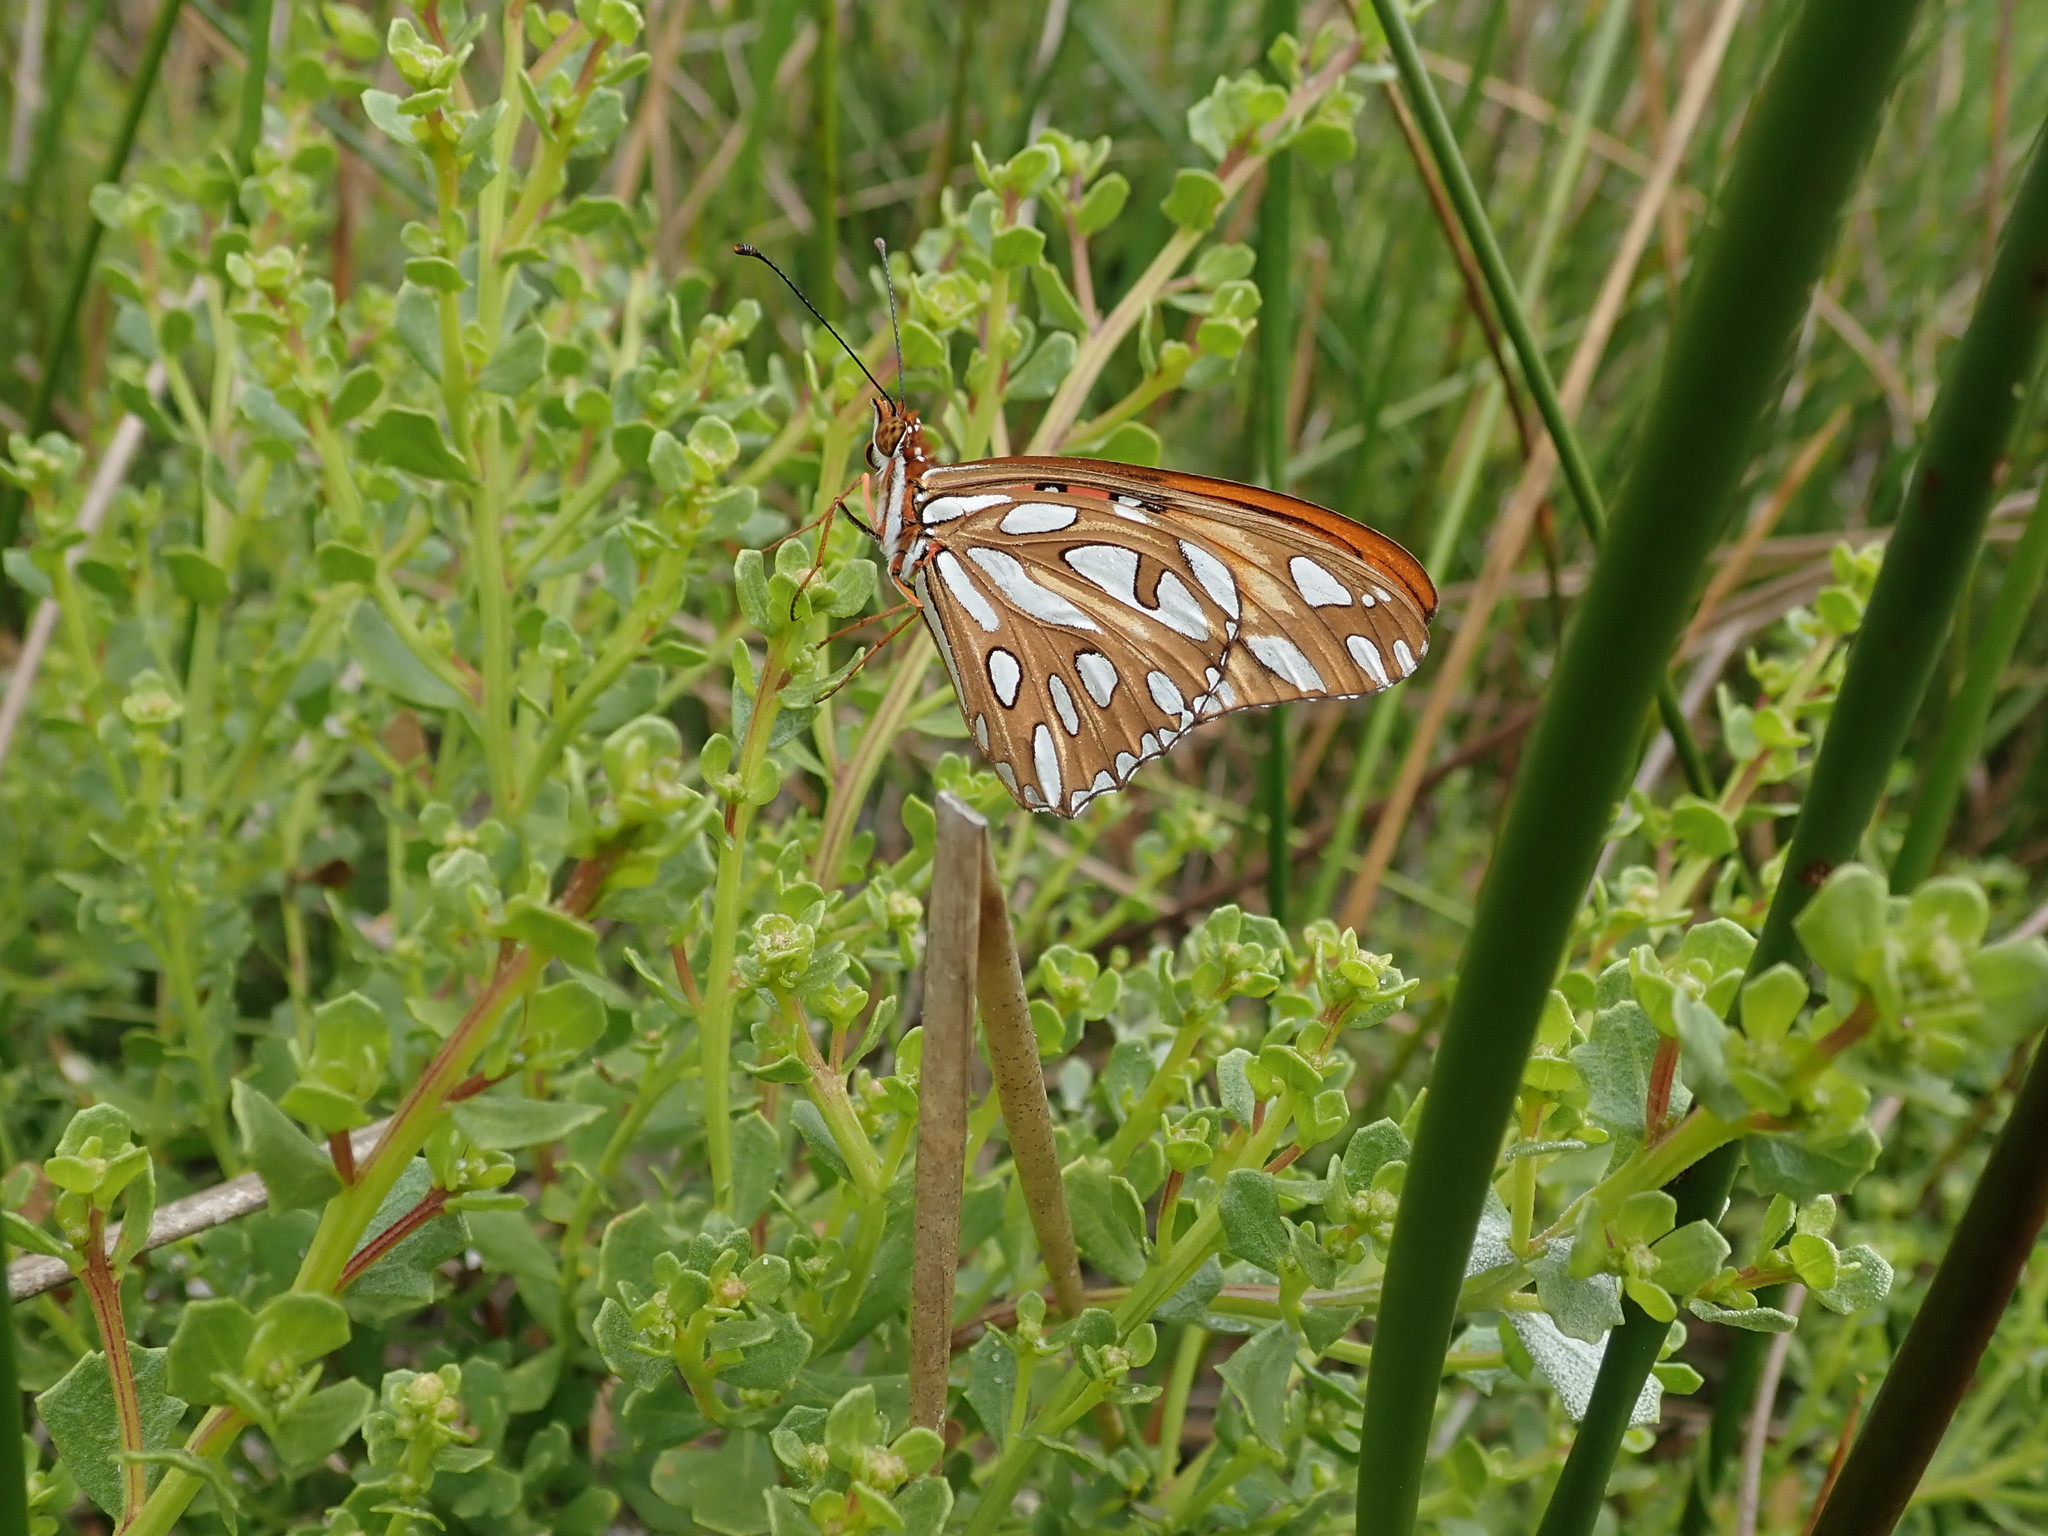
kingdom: Animalia
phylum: Arthropoda
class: Insecta
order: Lepidoptera
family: Nymphalidae
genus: Dione
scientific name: Dione vanillae
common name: Gulf fritillary
